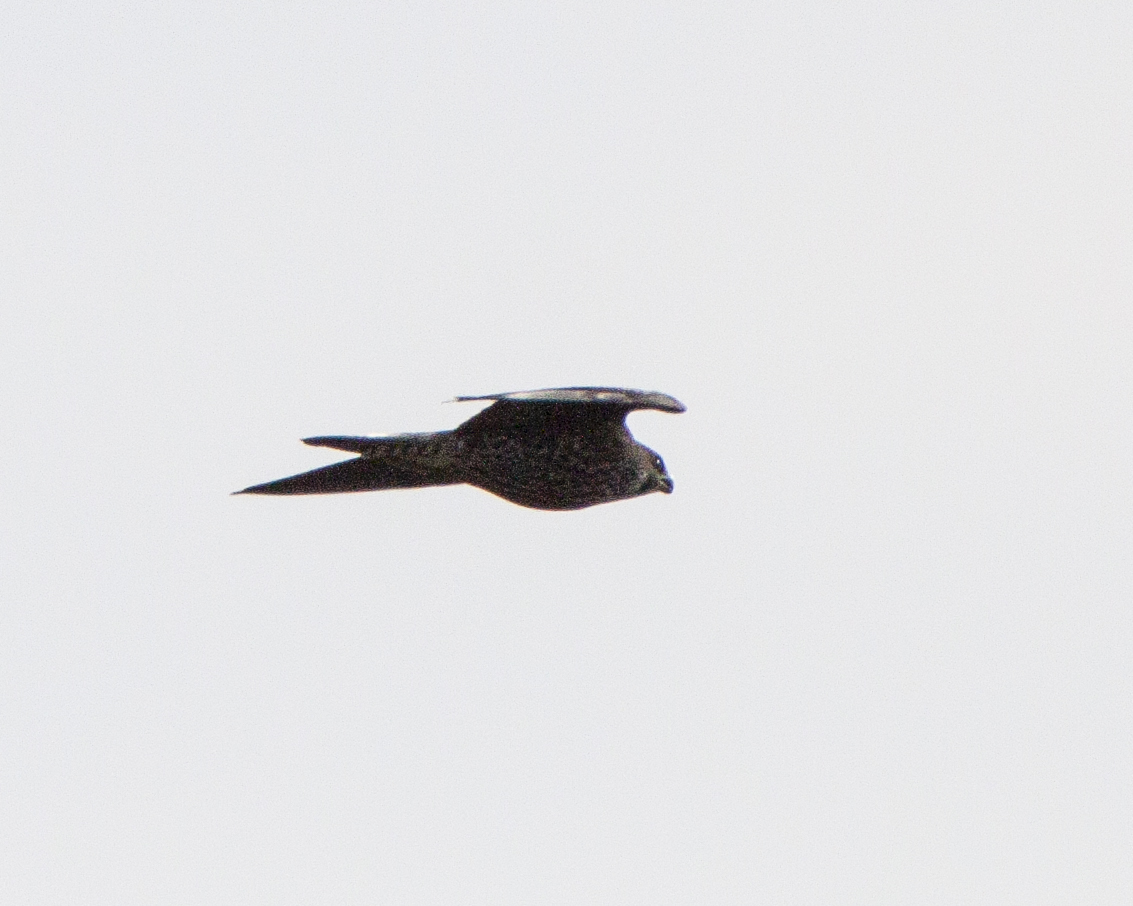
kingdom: Animalia
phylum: Chordata
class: Aves
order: Falconiformes
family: Falconidae
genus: Falco
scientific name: Falco peregrinus
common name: Peregrine falcon
